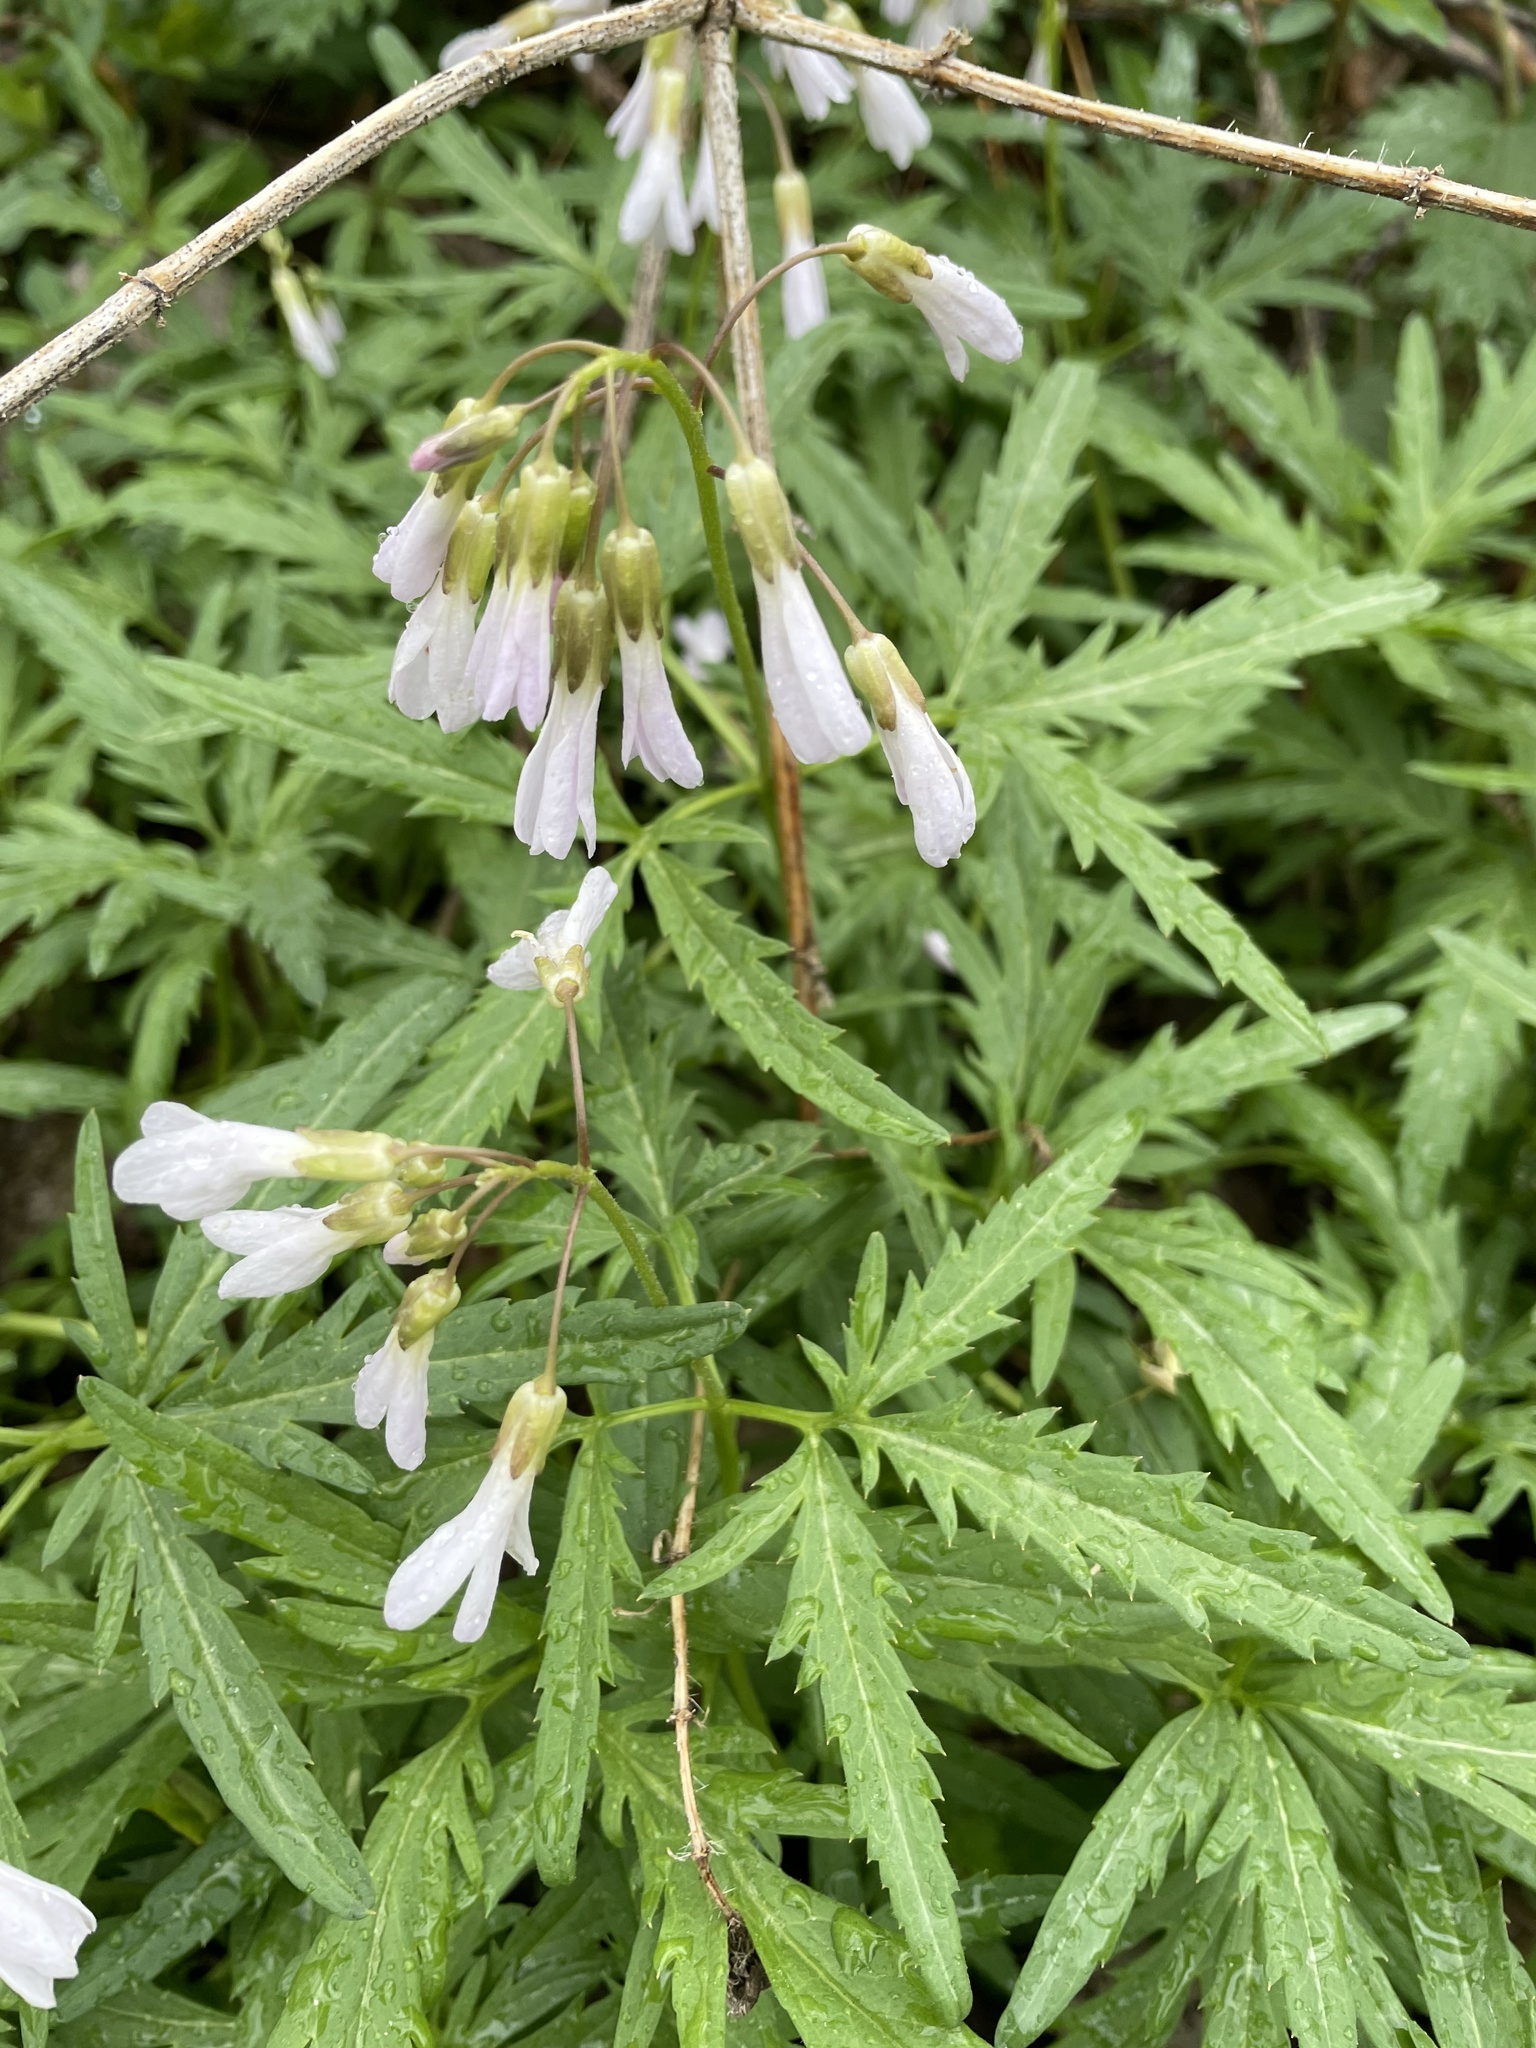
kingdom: Plantae
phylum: Tracheophyta
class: Magnoliopsida
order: Brassicales
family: Brassicaceae
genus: Cardamine
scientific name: Cardamine concatenata
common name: Cut-leaf toothcup
